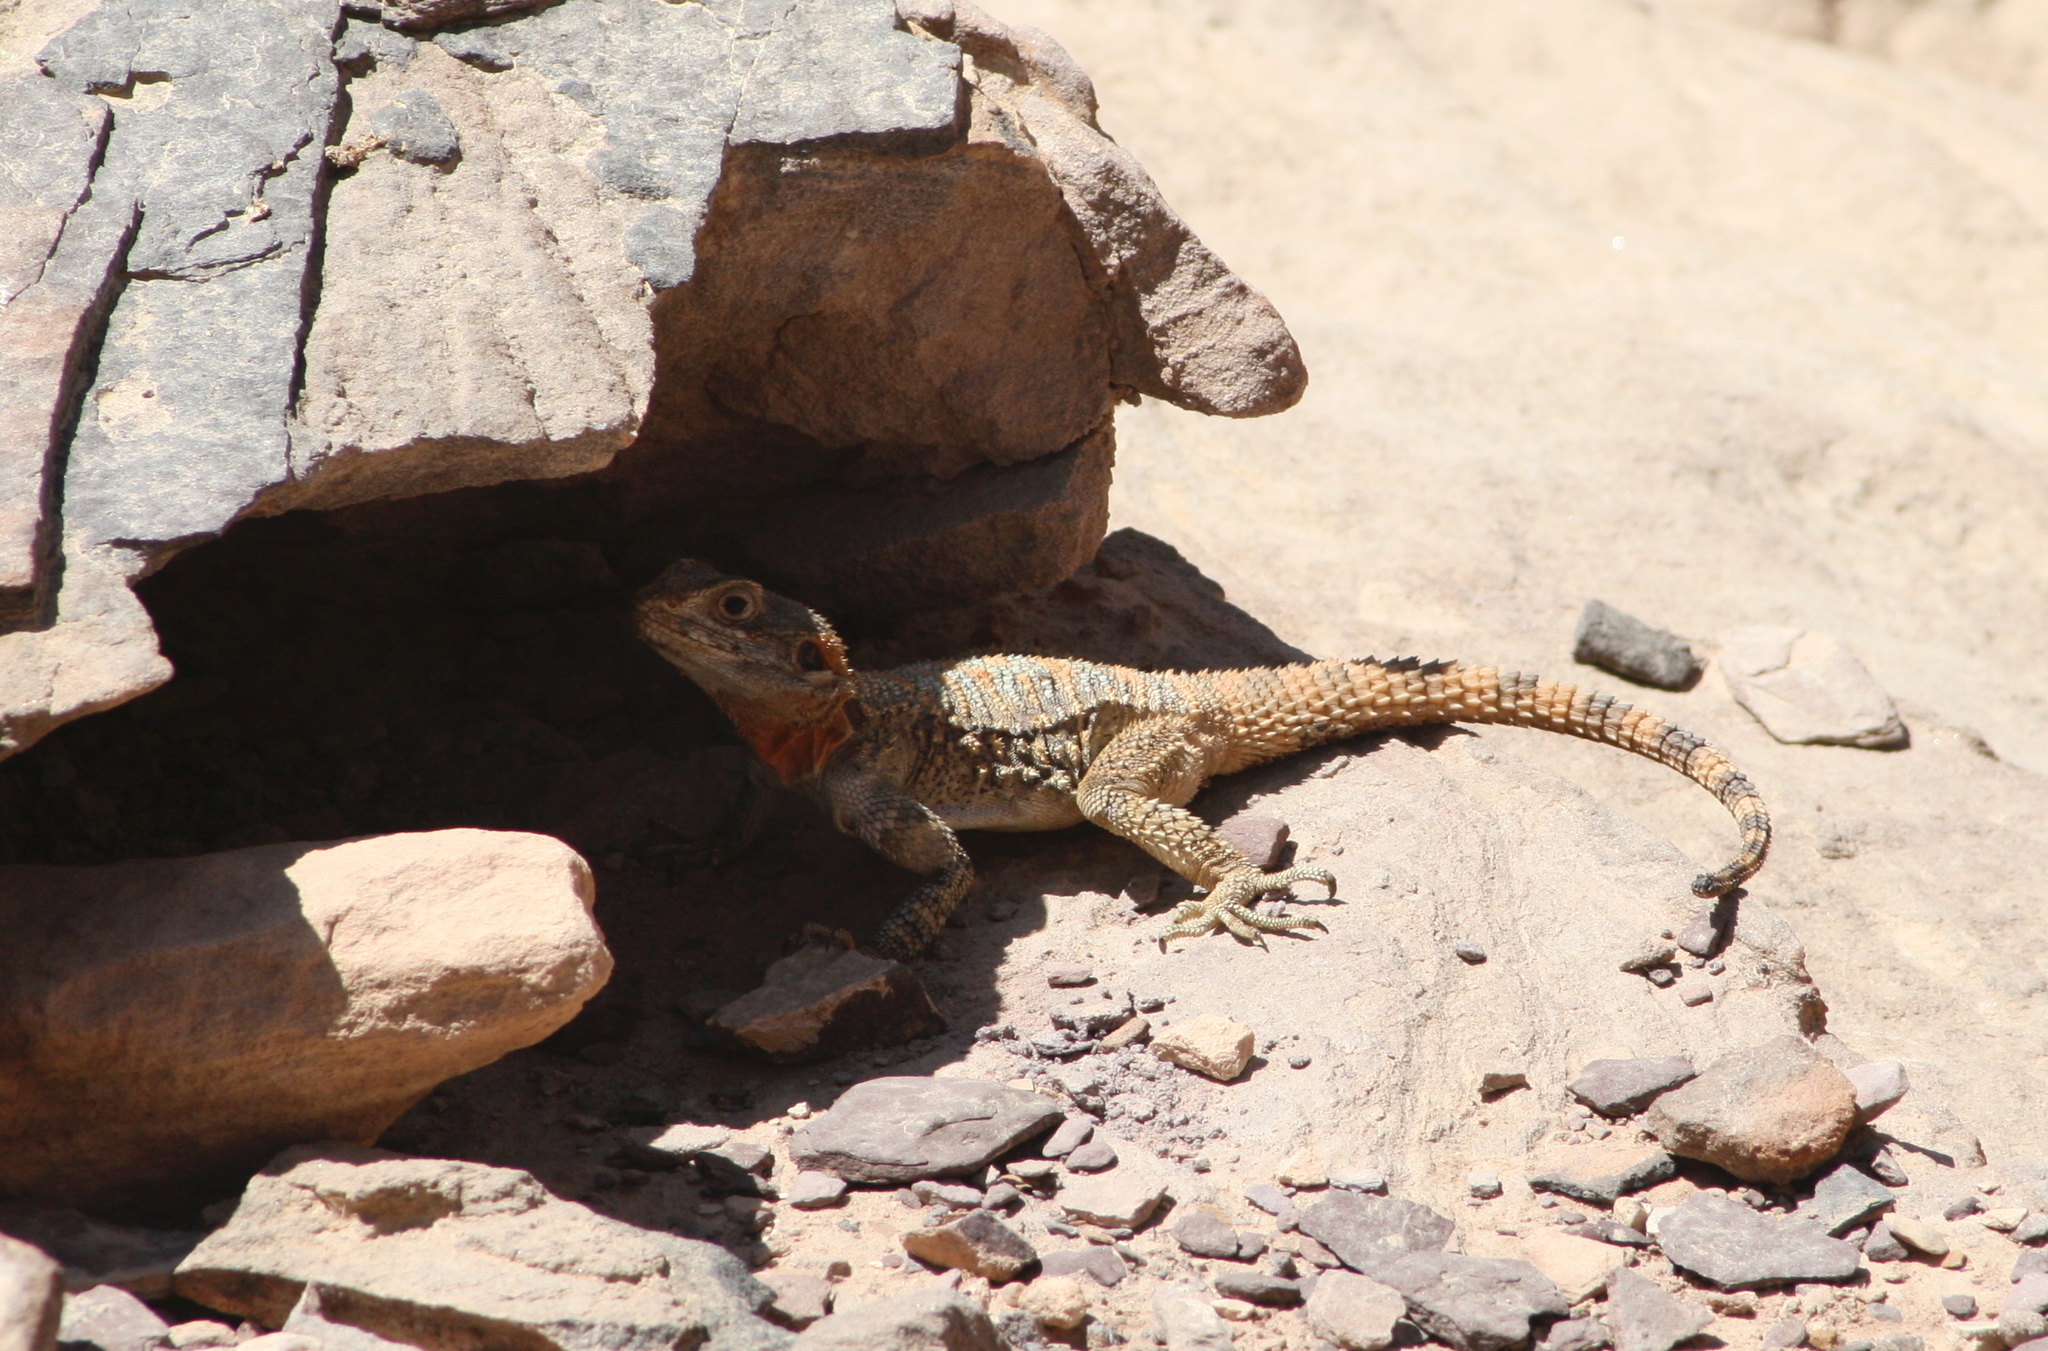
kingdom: Animalia
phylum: Chordata
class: Squamata
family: Agamidae
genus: Laudakia
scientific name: Laudakia vulgaris
